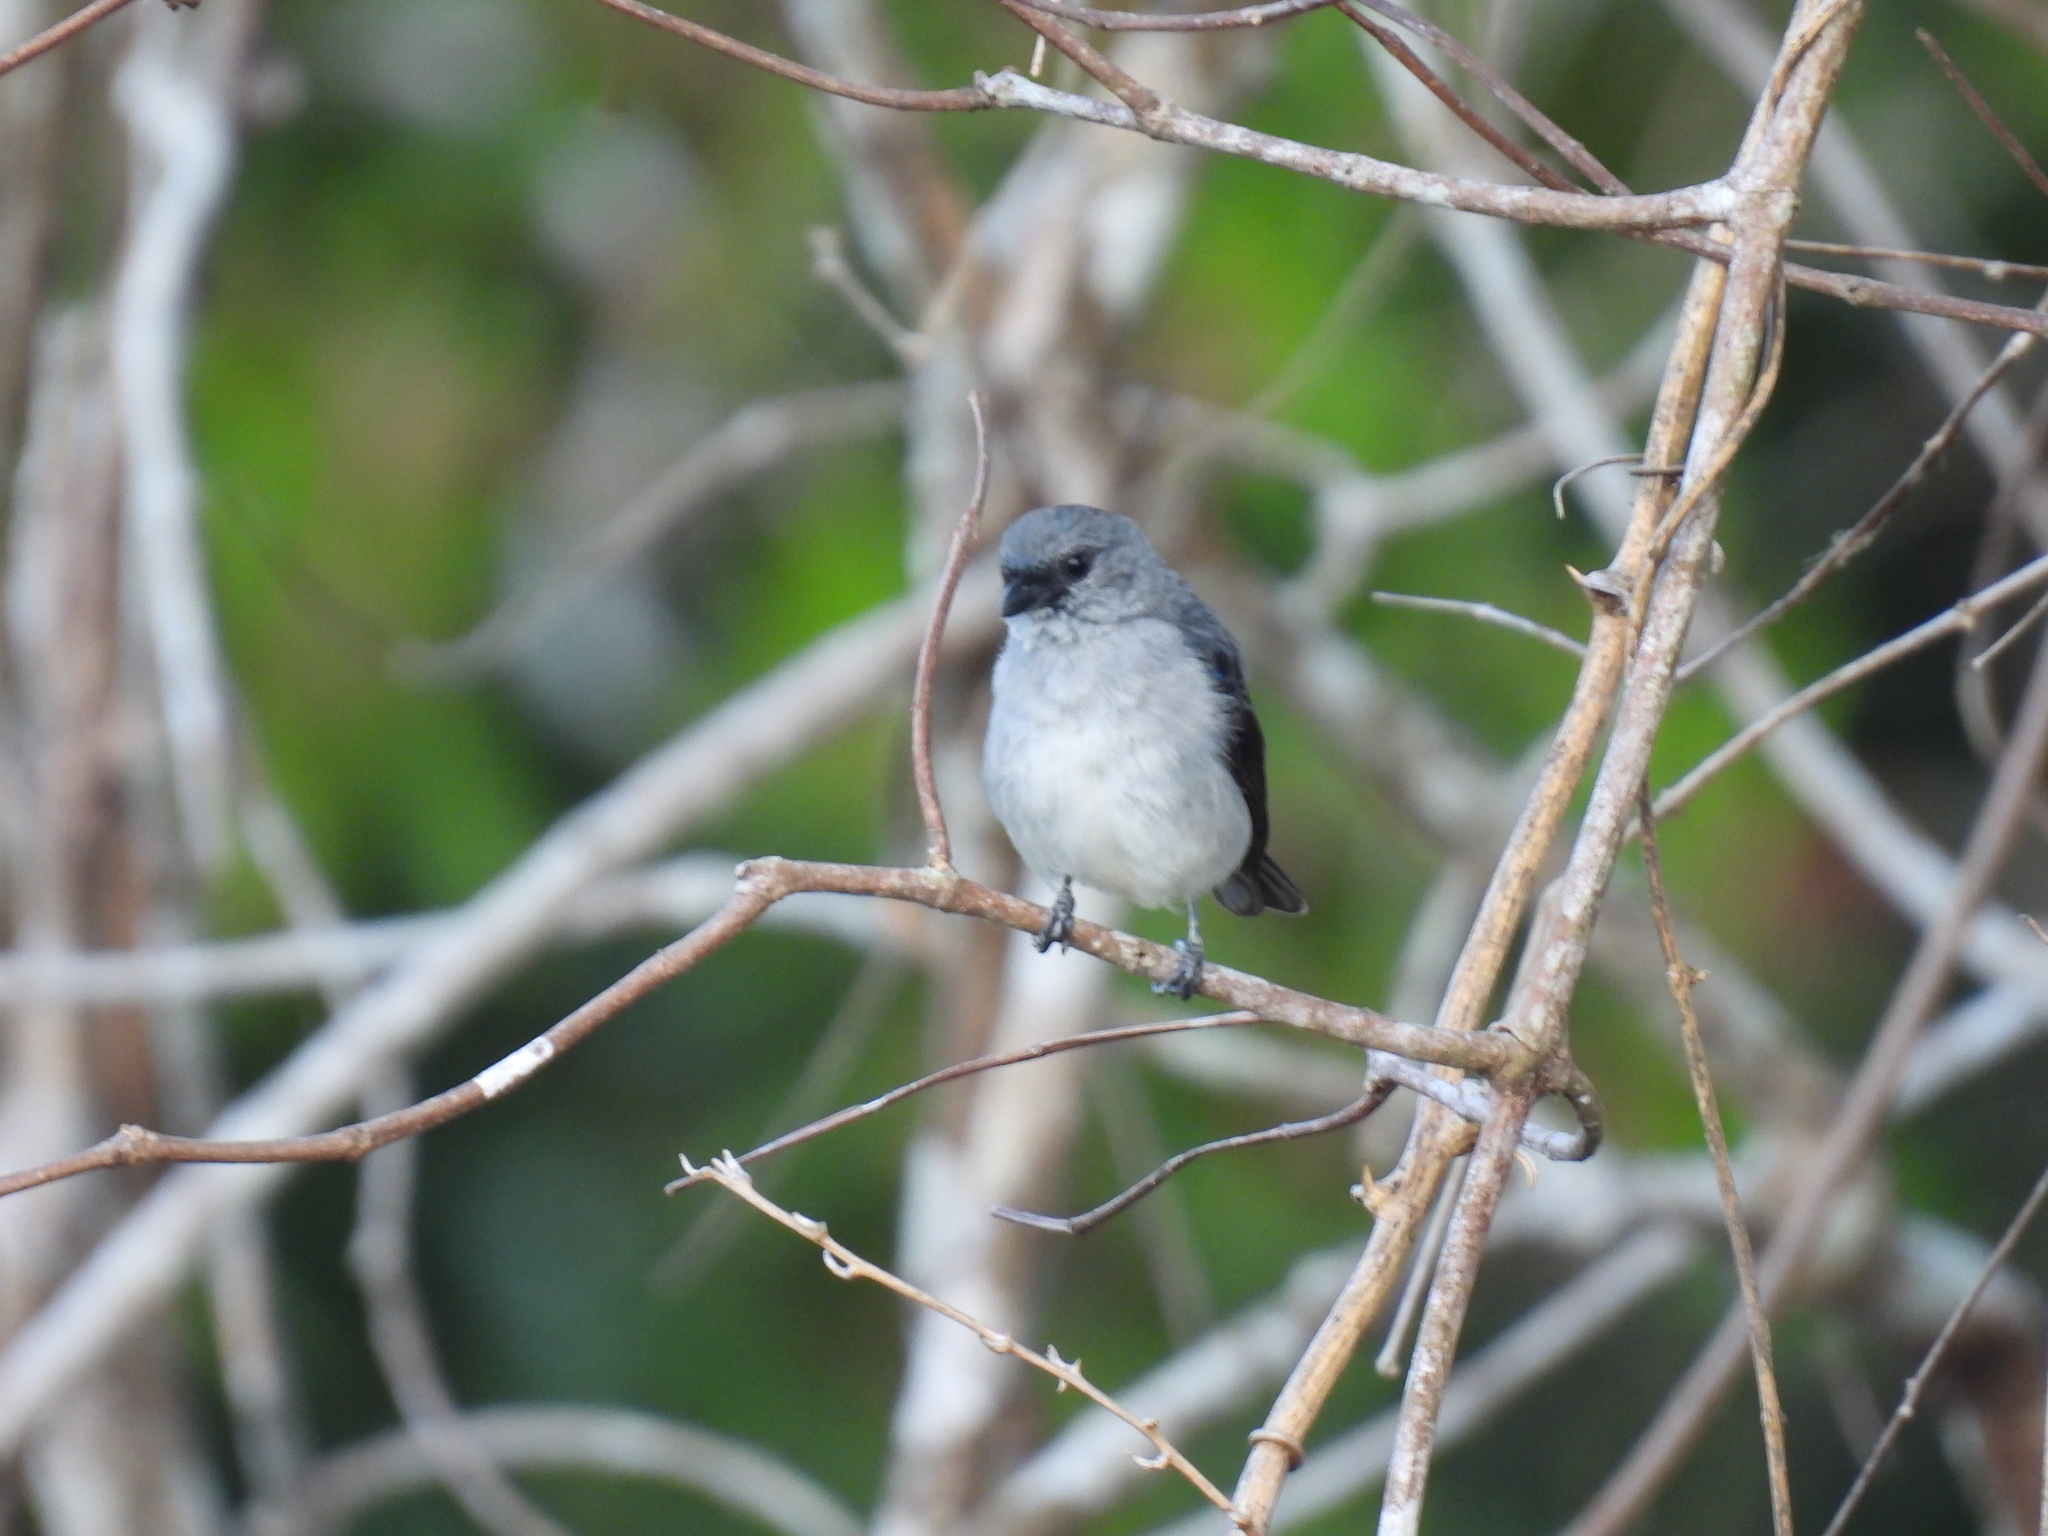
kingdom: Animalia
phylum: Chordata
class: Aves
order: Passeriformes
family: Thraupidae
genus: Tangara
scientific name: Tangara inornata
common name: Plain-colored tanager
